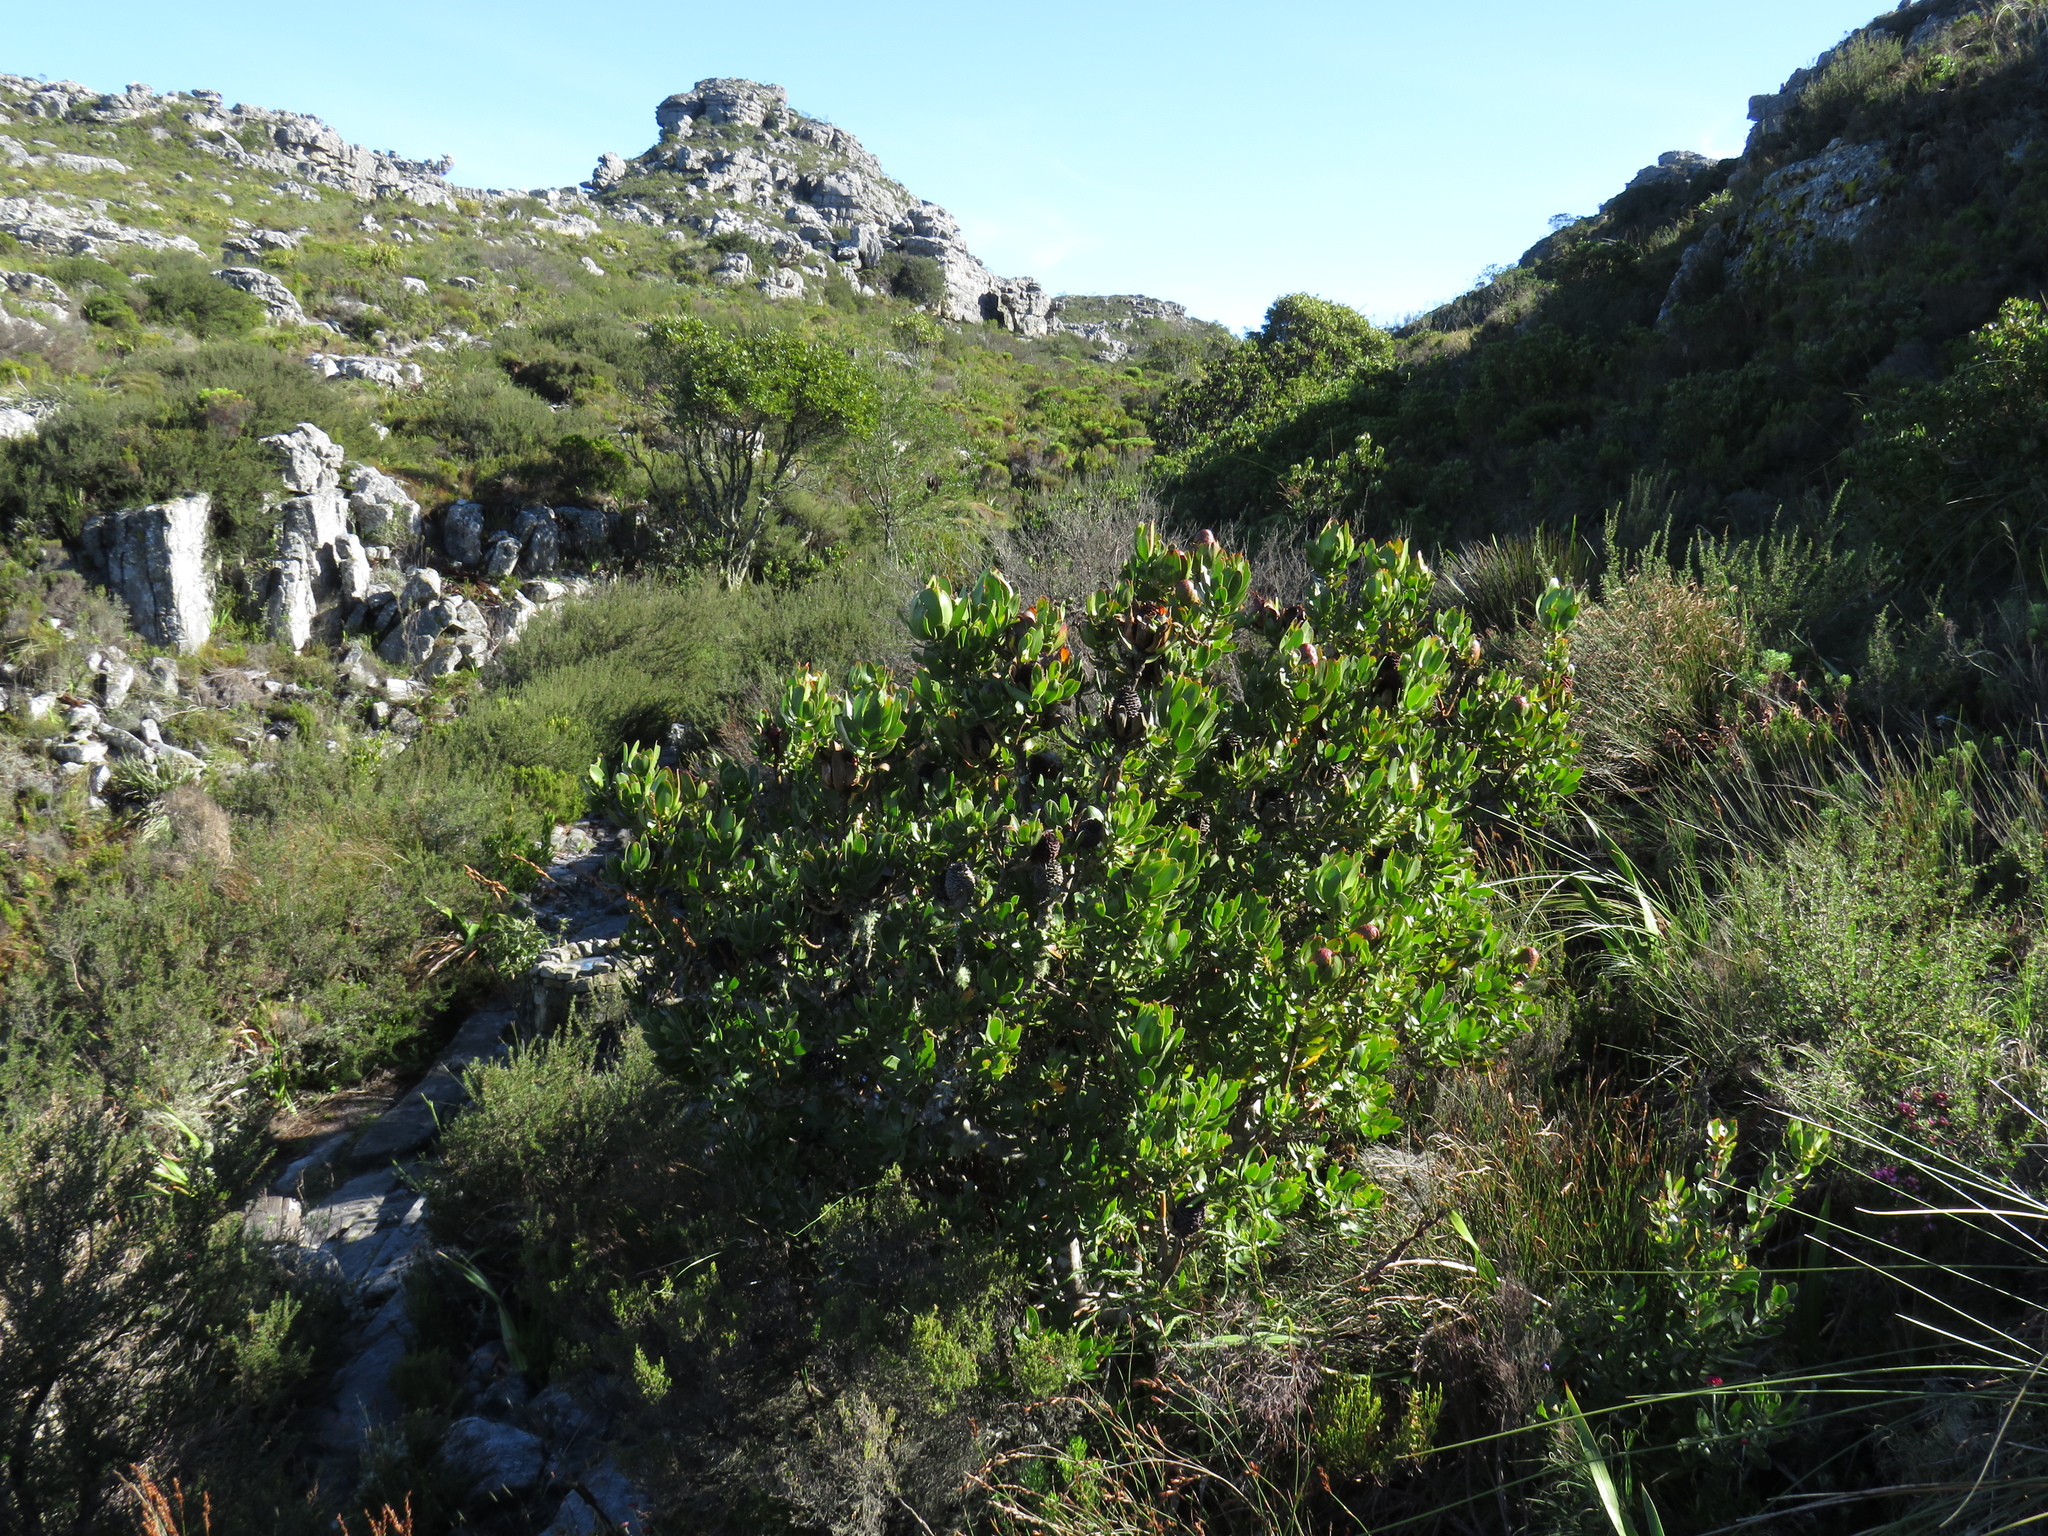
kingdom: Plantae
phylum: Tracheophyta
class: Magnoliopsida
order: Proteales
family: Proteaceae
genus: Leucadendron
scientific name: Leucadendron strobilinum
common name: Mountain rose
